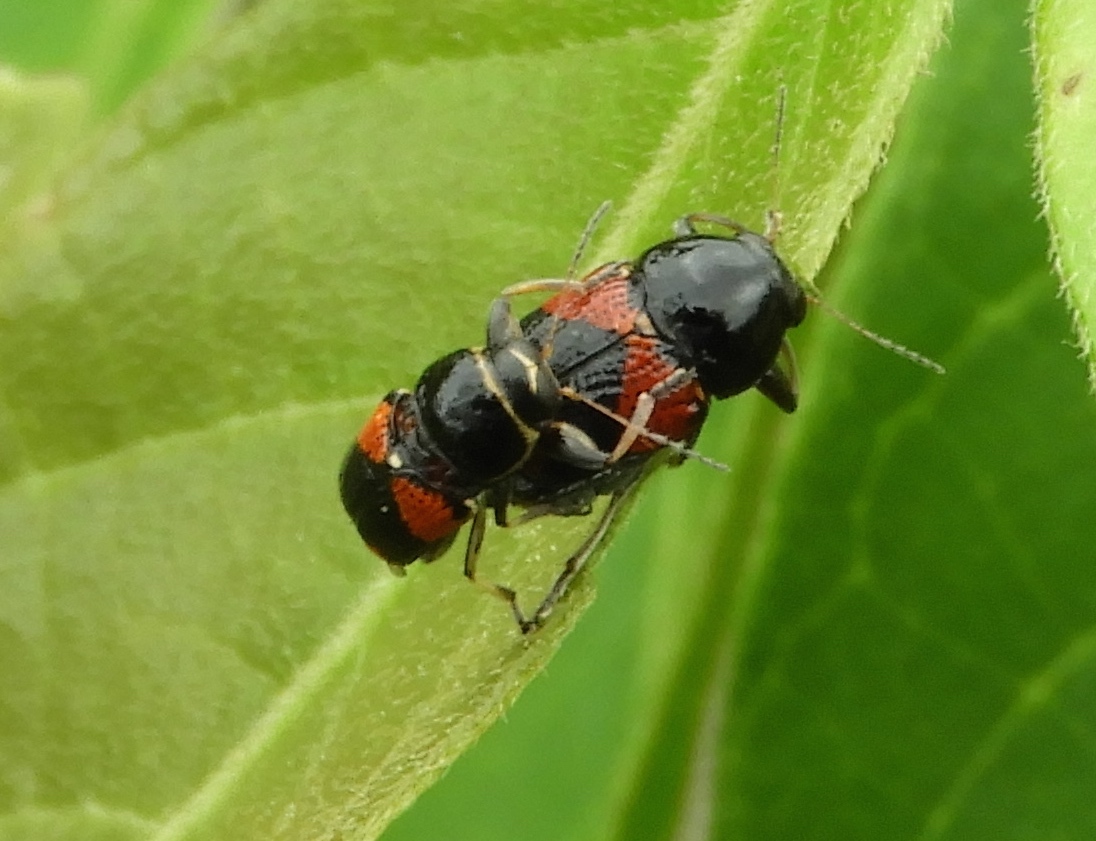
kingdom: Animalia
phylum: Arthropoda
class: Insecta
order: Coleoptera
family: Chrysomelidae
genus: Griburius
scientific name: Griburius albilabris
